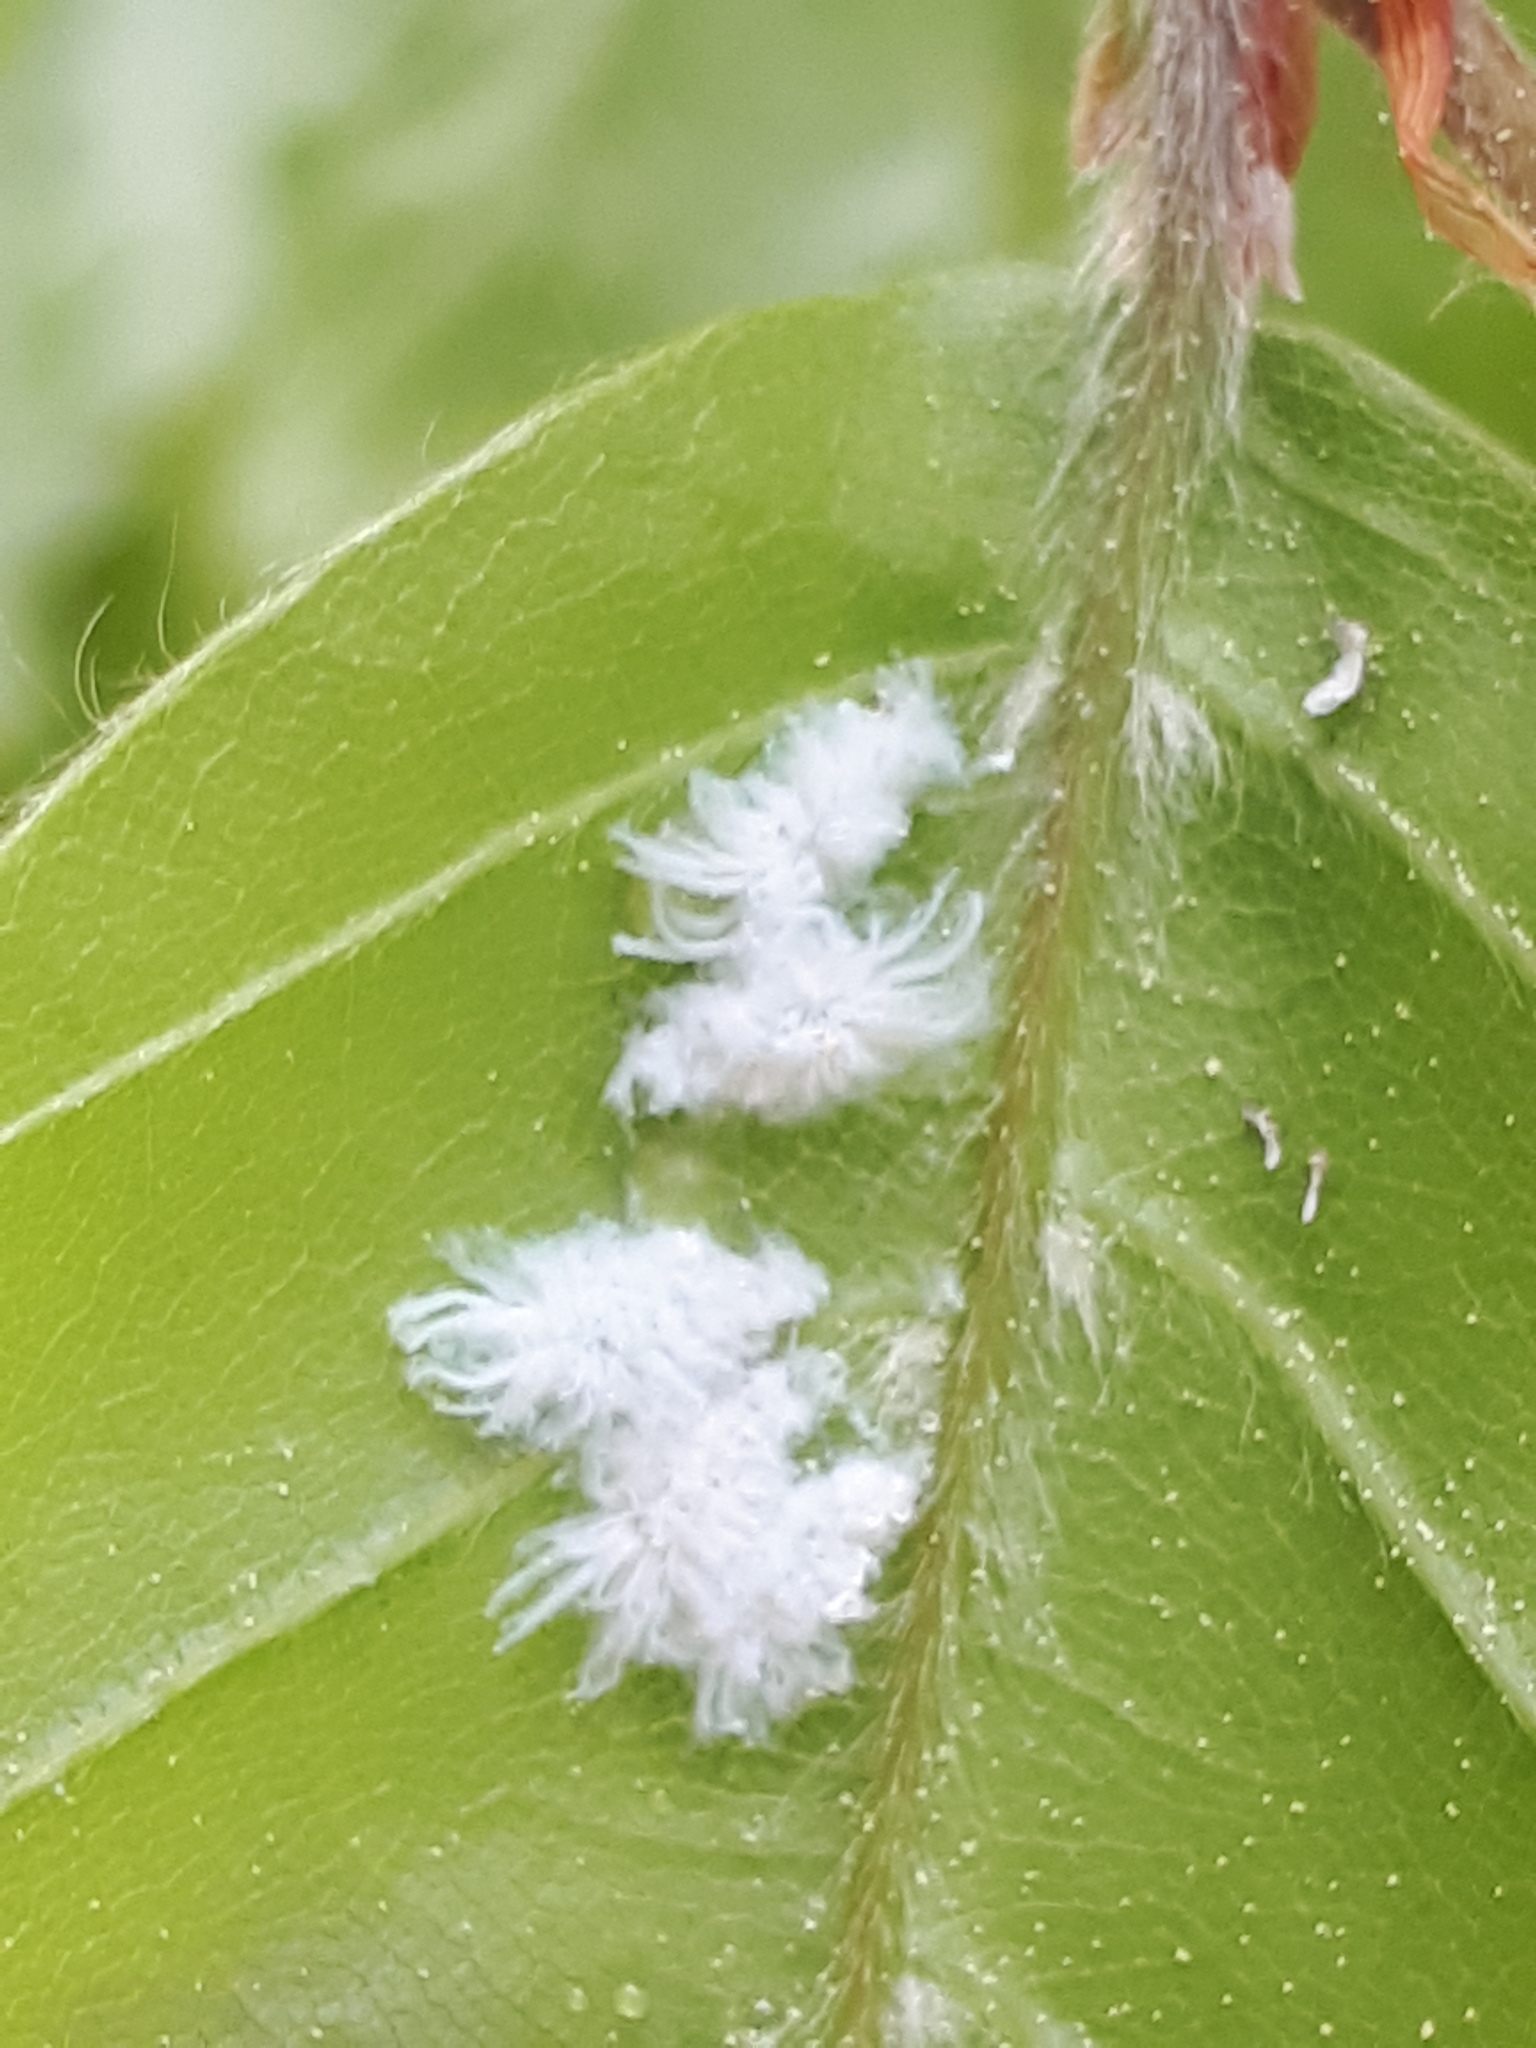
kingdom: Animalia
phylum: Arthropoda
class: Insecta
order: Hemiptera
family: Aphididae
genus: Phyllaphis
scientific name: Phyllaphis fagi
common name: Beech aphid
